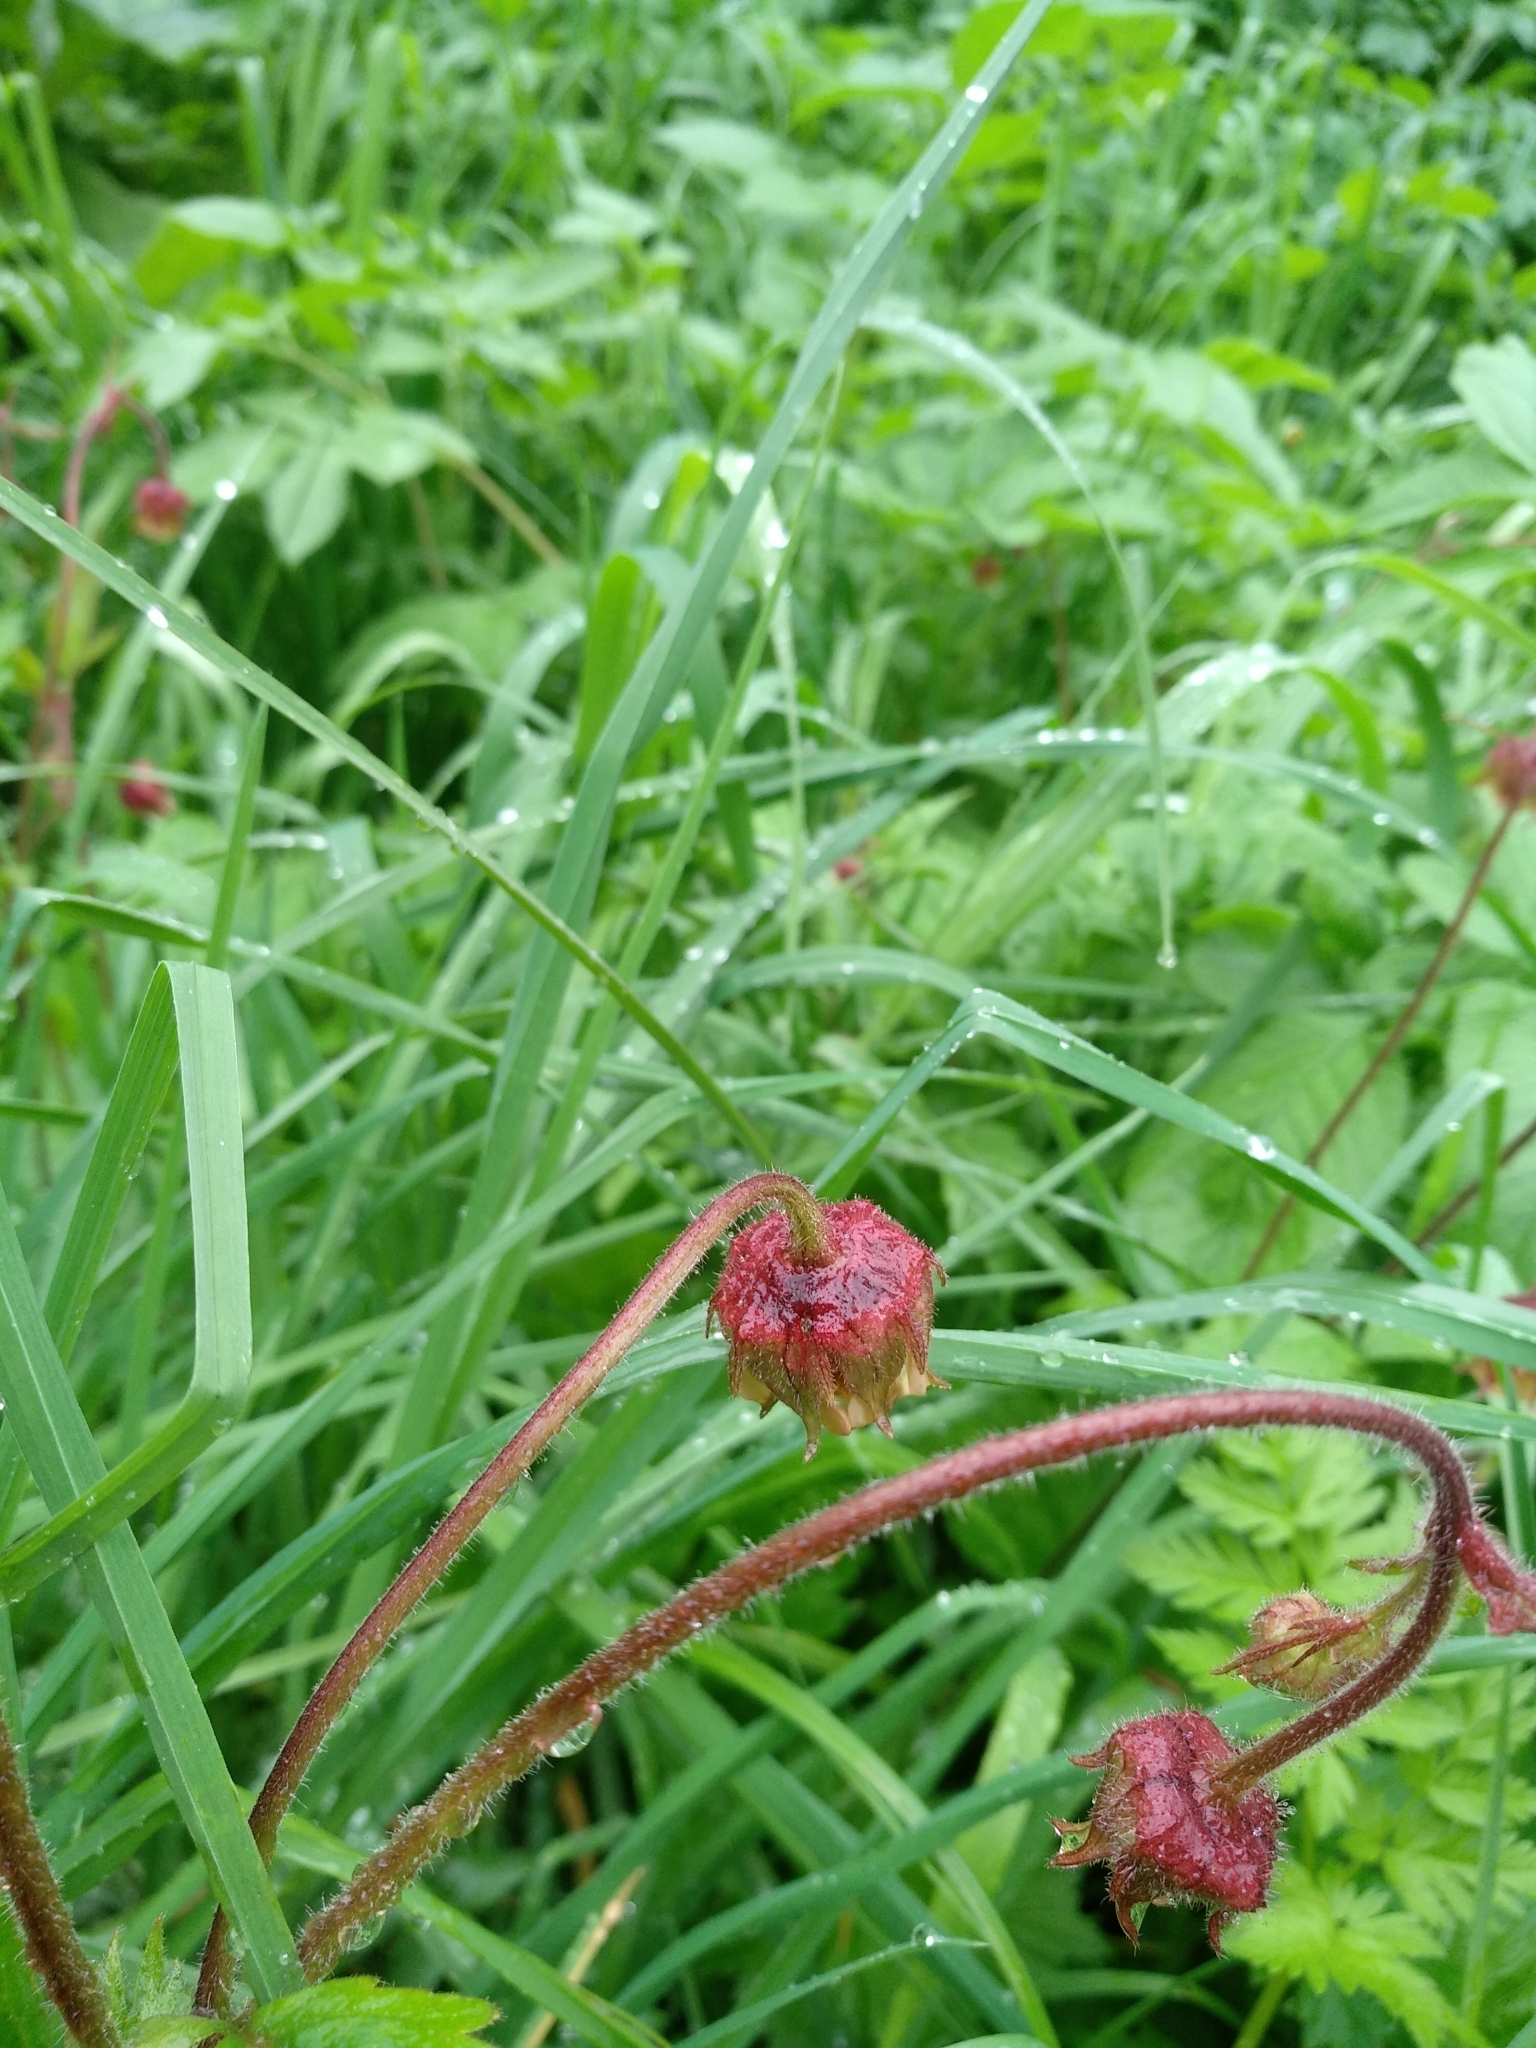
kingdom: Plantae
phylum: Tracheophyta
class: Magnoliopsida
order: Rosales
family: Rosaceae
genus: Geum
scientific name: Geum rivale
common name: Water avens
